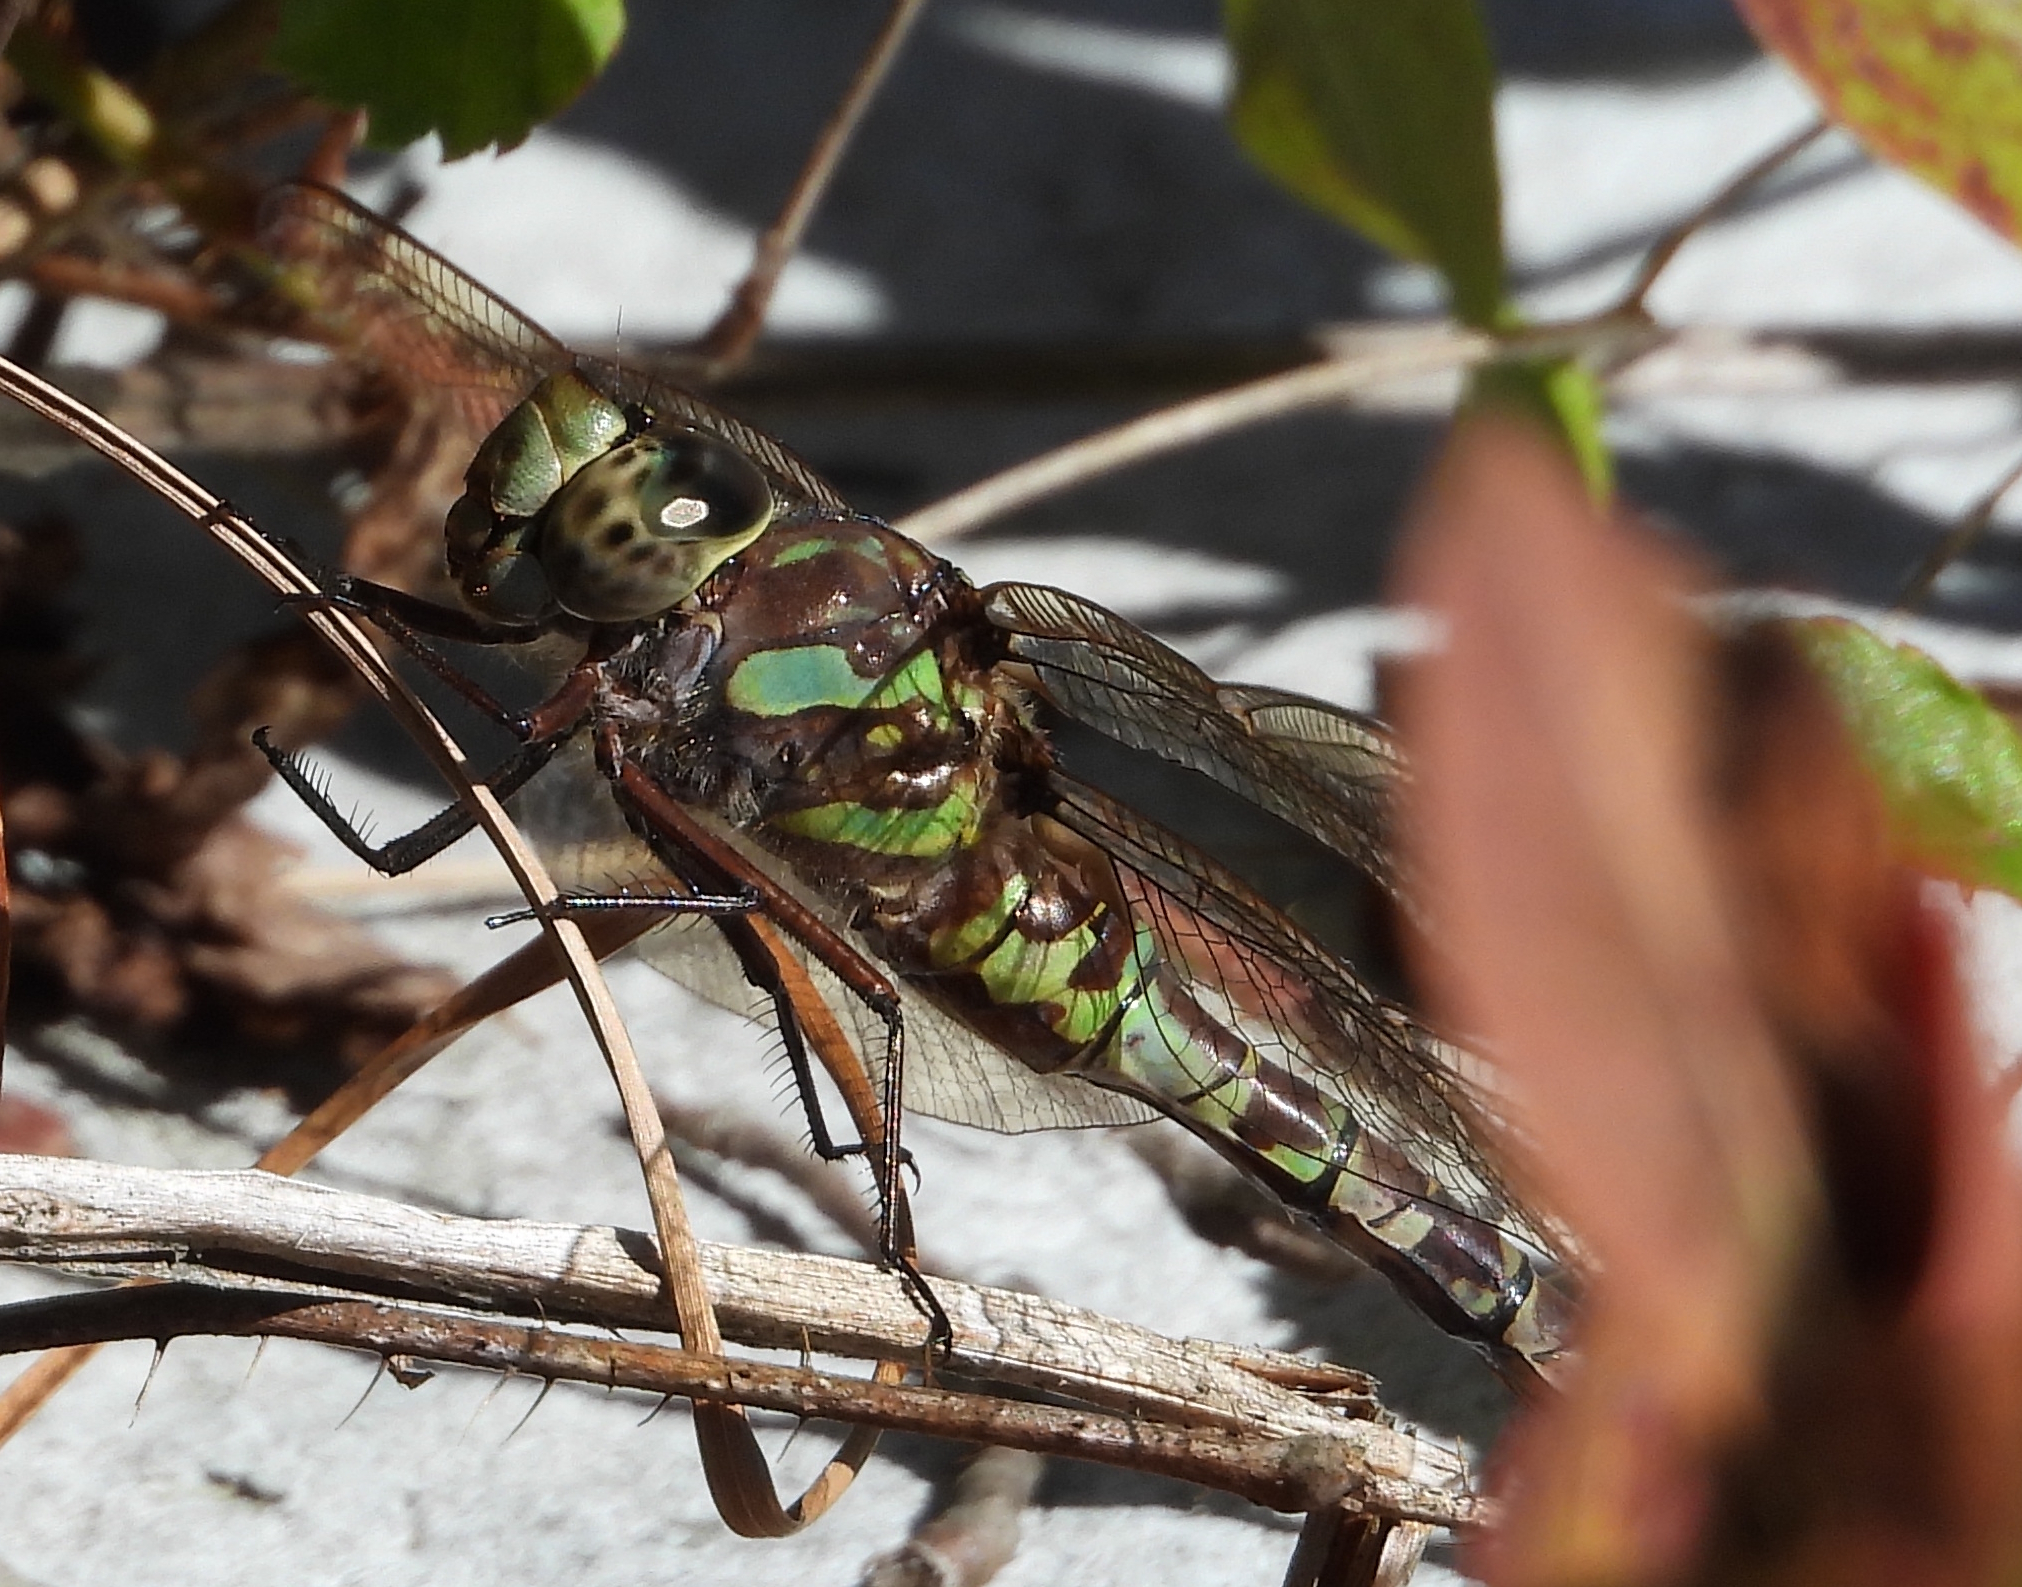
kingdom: Animalia
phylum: Arthropoda
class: Insecta
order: Odonata
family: Aeshnidae
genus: Aeshna
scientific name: Aeshna canadensis
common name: Canada darner
